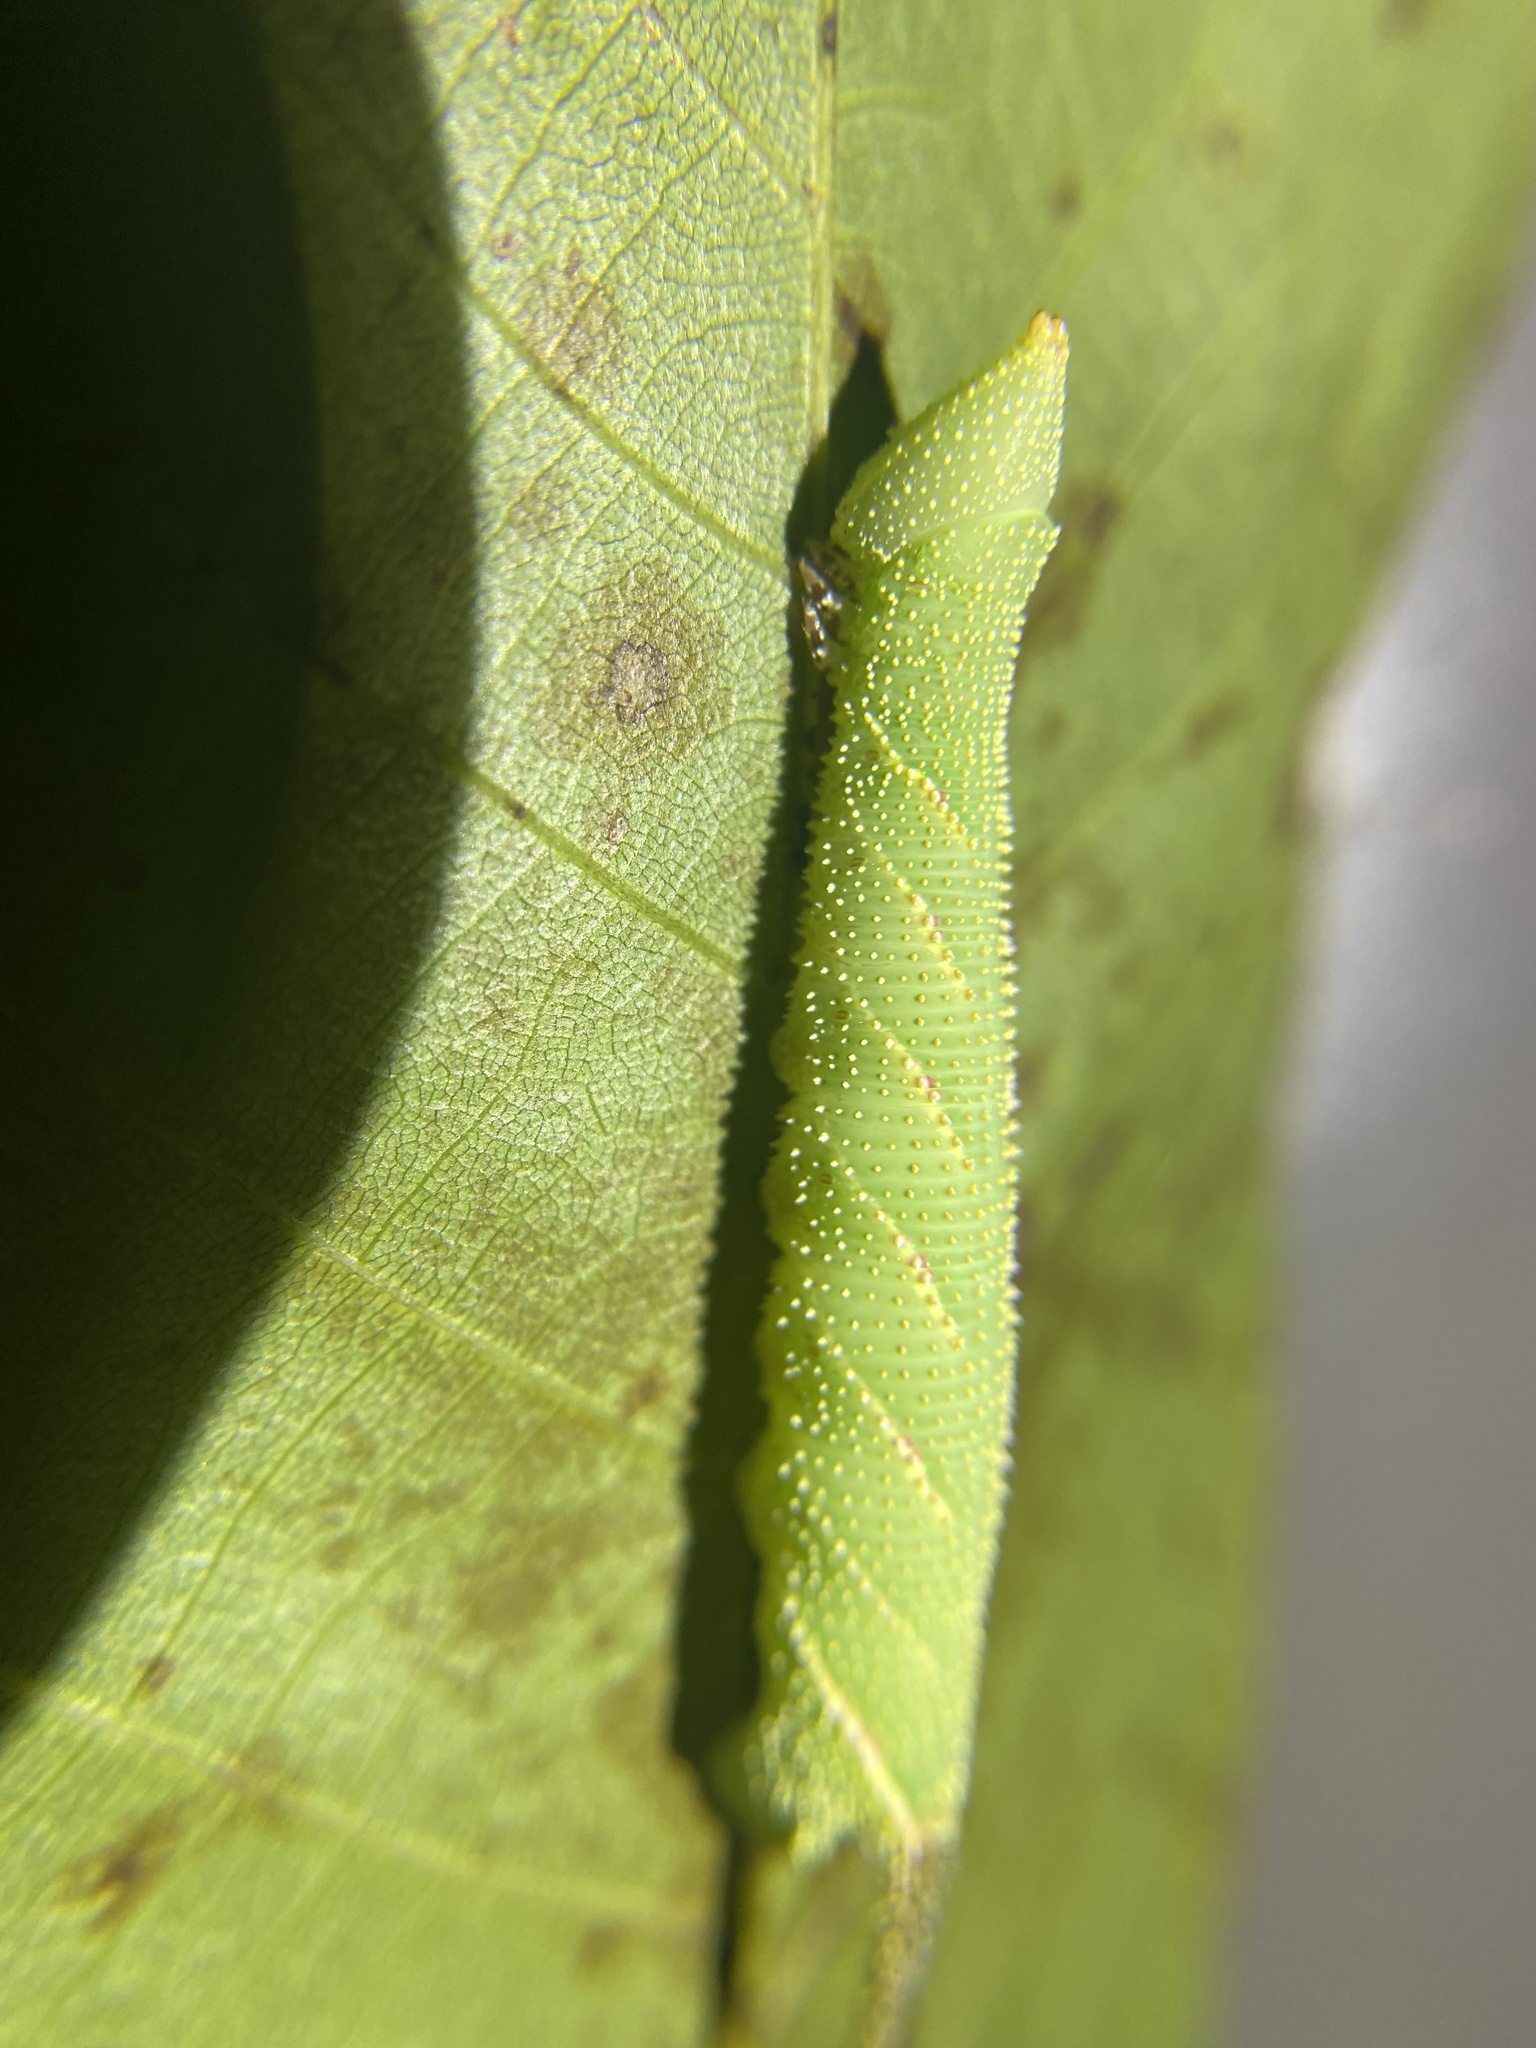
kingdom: Animalia
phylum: Arthropoda
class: Insecta
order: Lepidoptera
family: Sphingidae
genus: Amorpha
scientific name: Amorpha juglandis
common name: Walnut sphinx
